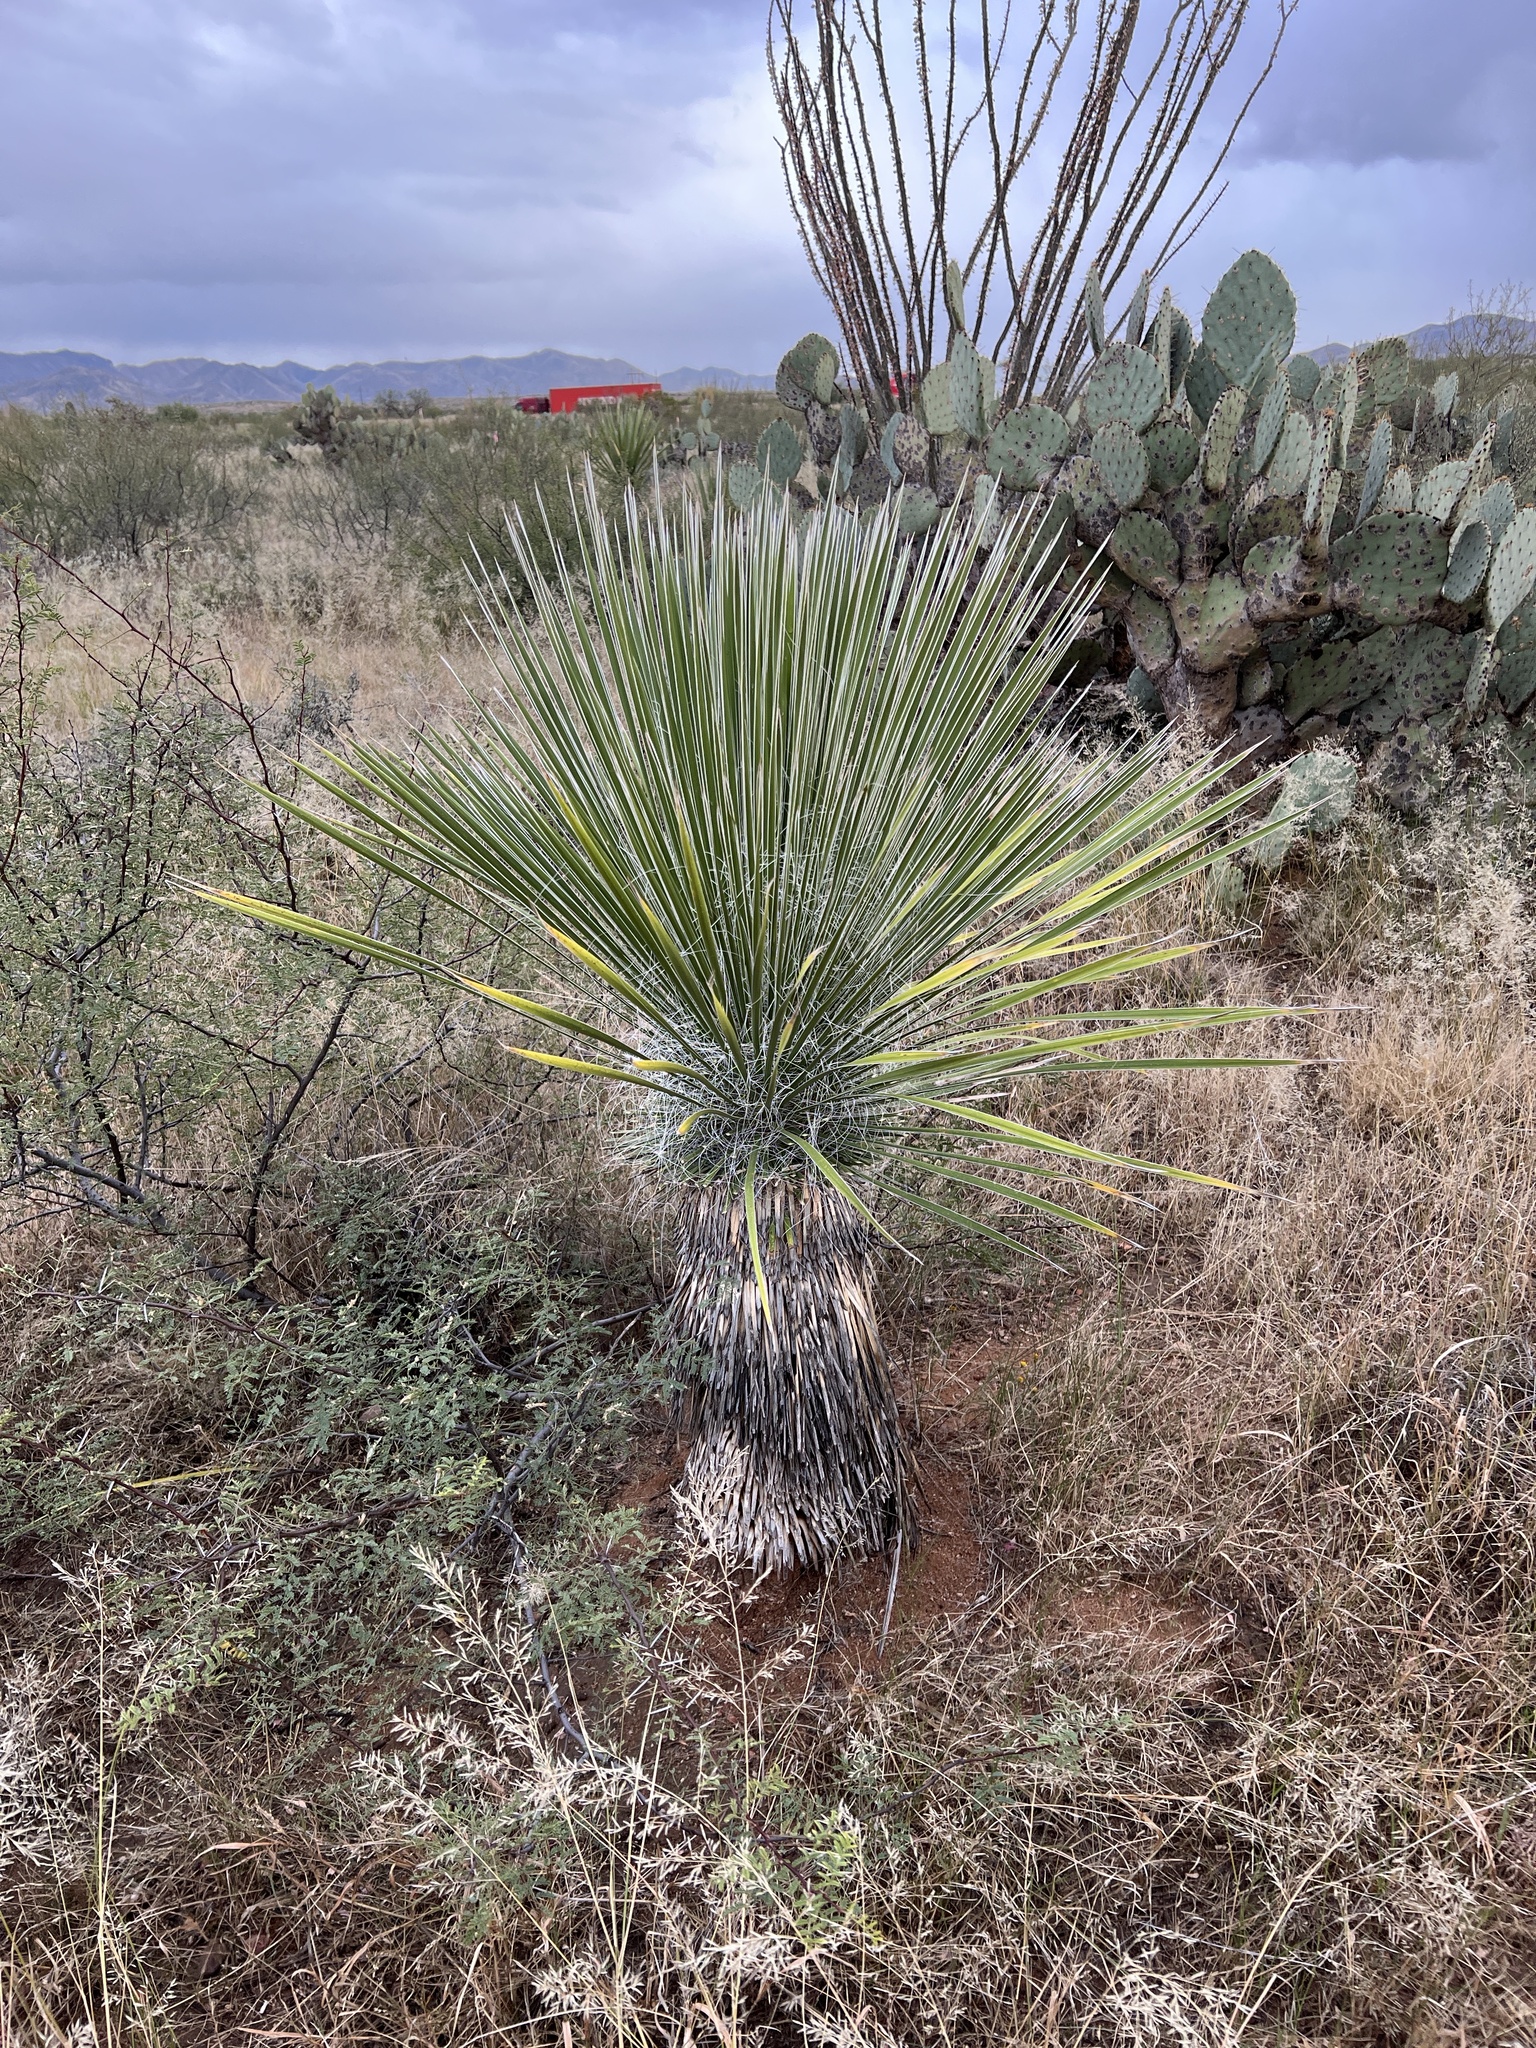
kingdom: Plantae
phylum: Tracheophyta
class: Liliopsida
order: Asparagales
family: Asparagaceae
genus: Yucca
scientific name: Yucca elata
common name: Palmella
